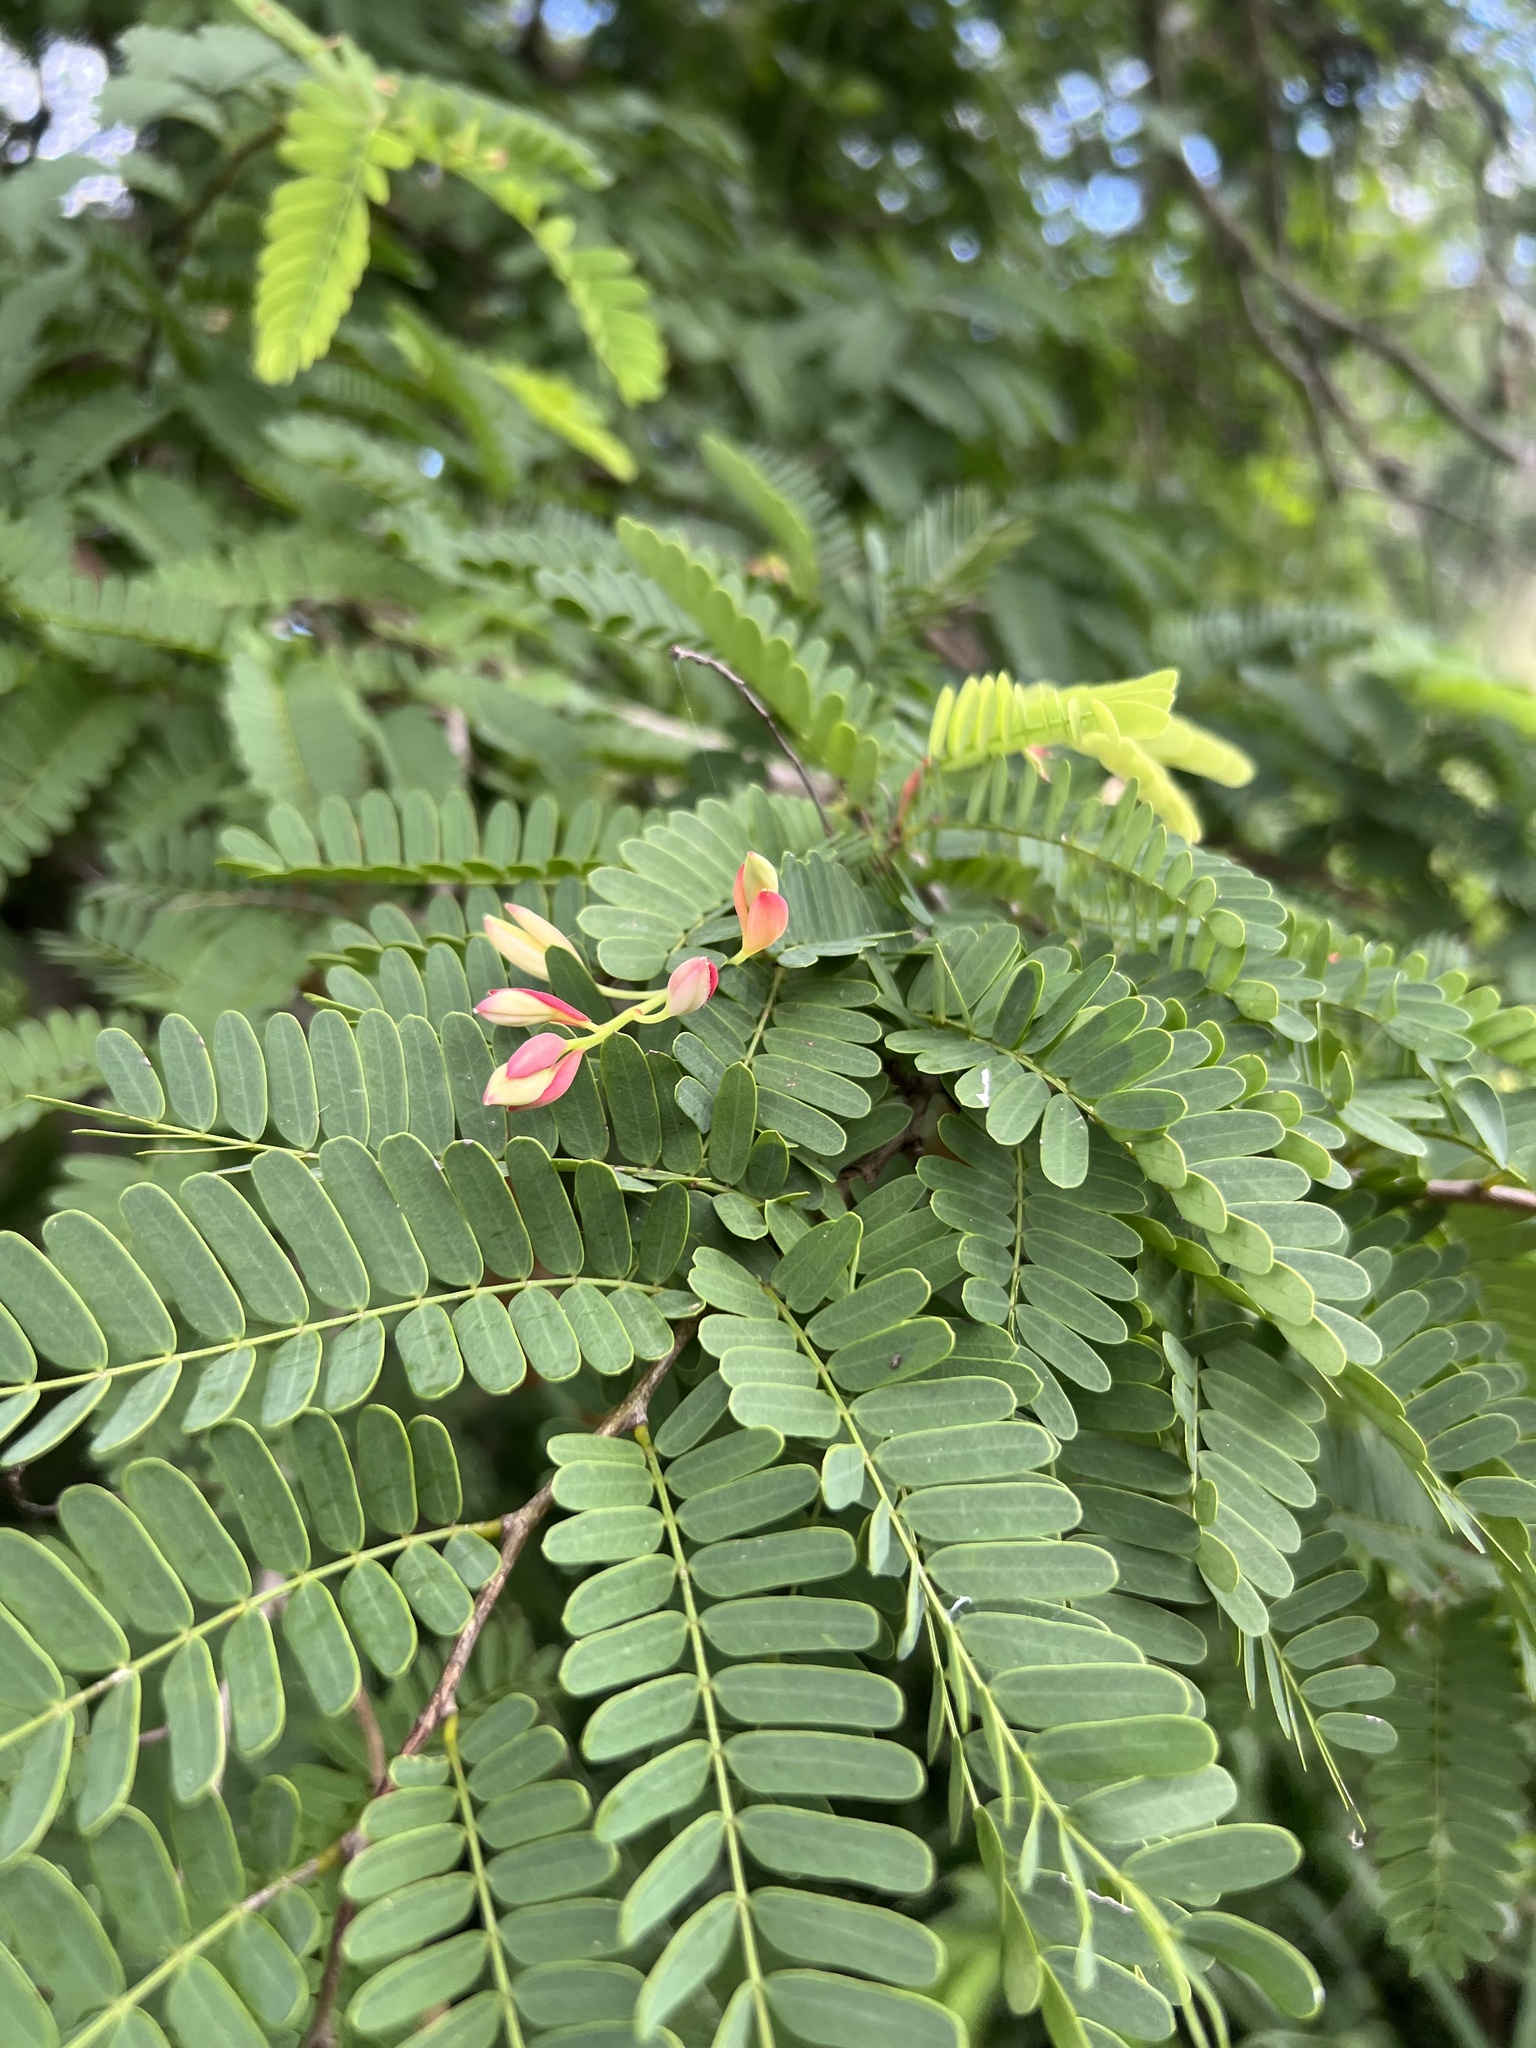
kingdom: Plantae
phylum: Tracheophyta
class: Magnoliopsida
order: Fabales
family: Fabaceae
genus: Tamarindus
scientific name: Tamarindus indica
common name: Tamarind
